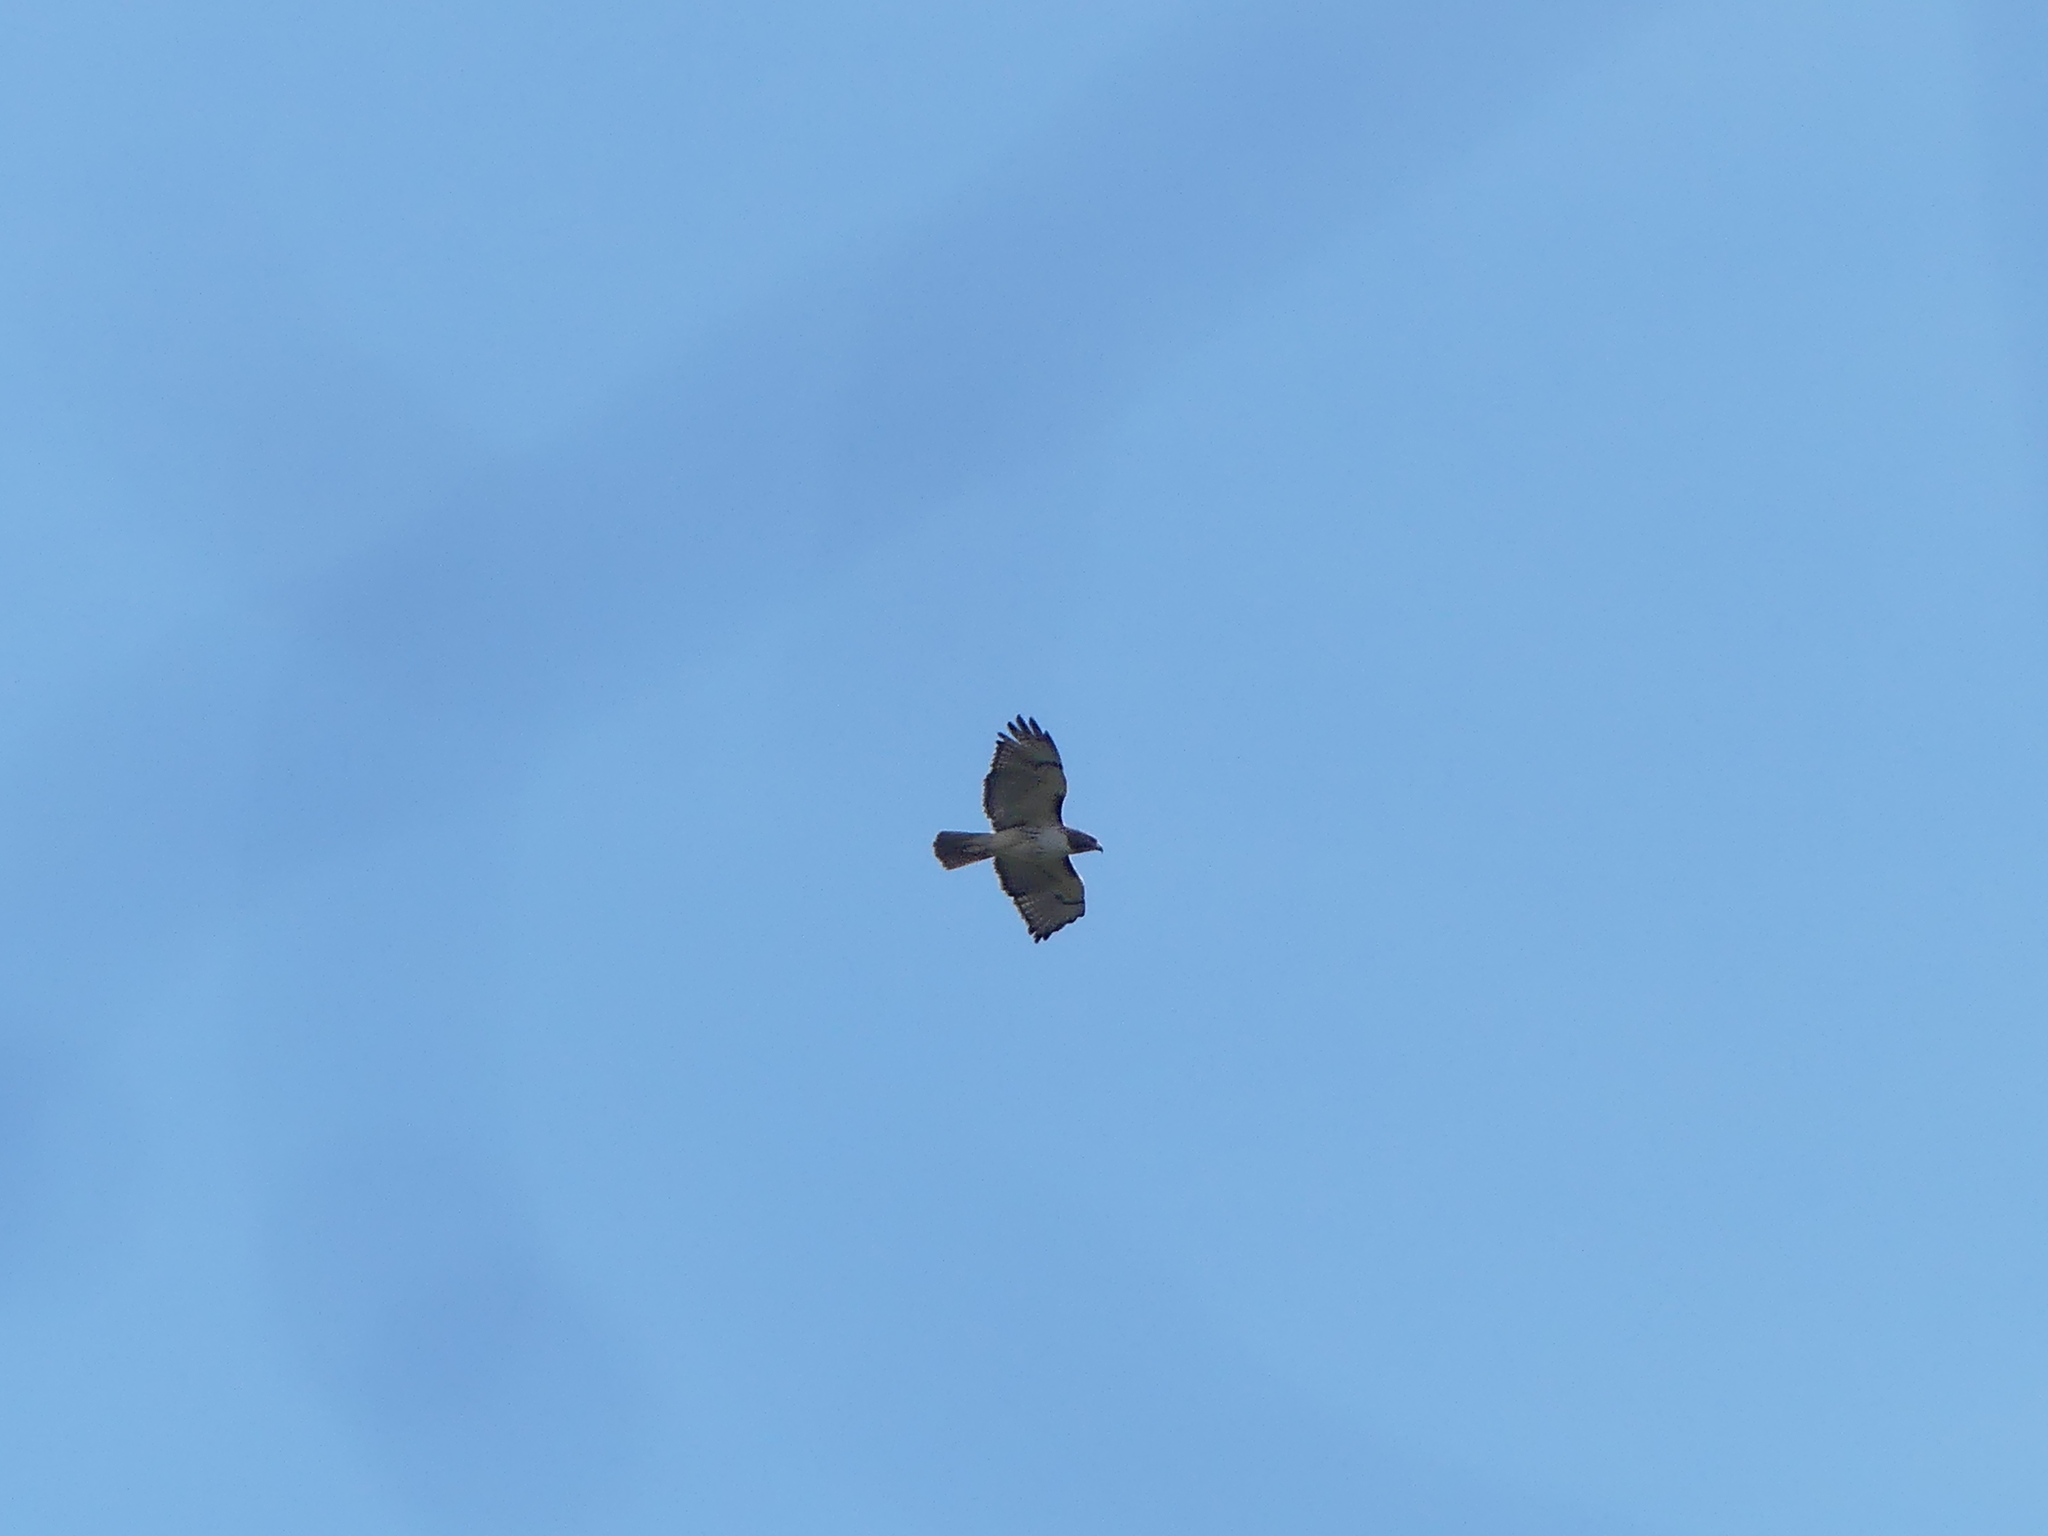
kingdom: Animalia
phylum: Chordata
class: Aves
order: Accipitriformes
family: Accipitridae
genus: Buteo
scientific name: Buteo jamaicensis
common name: Red-tailed hawk
